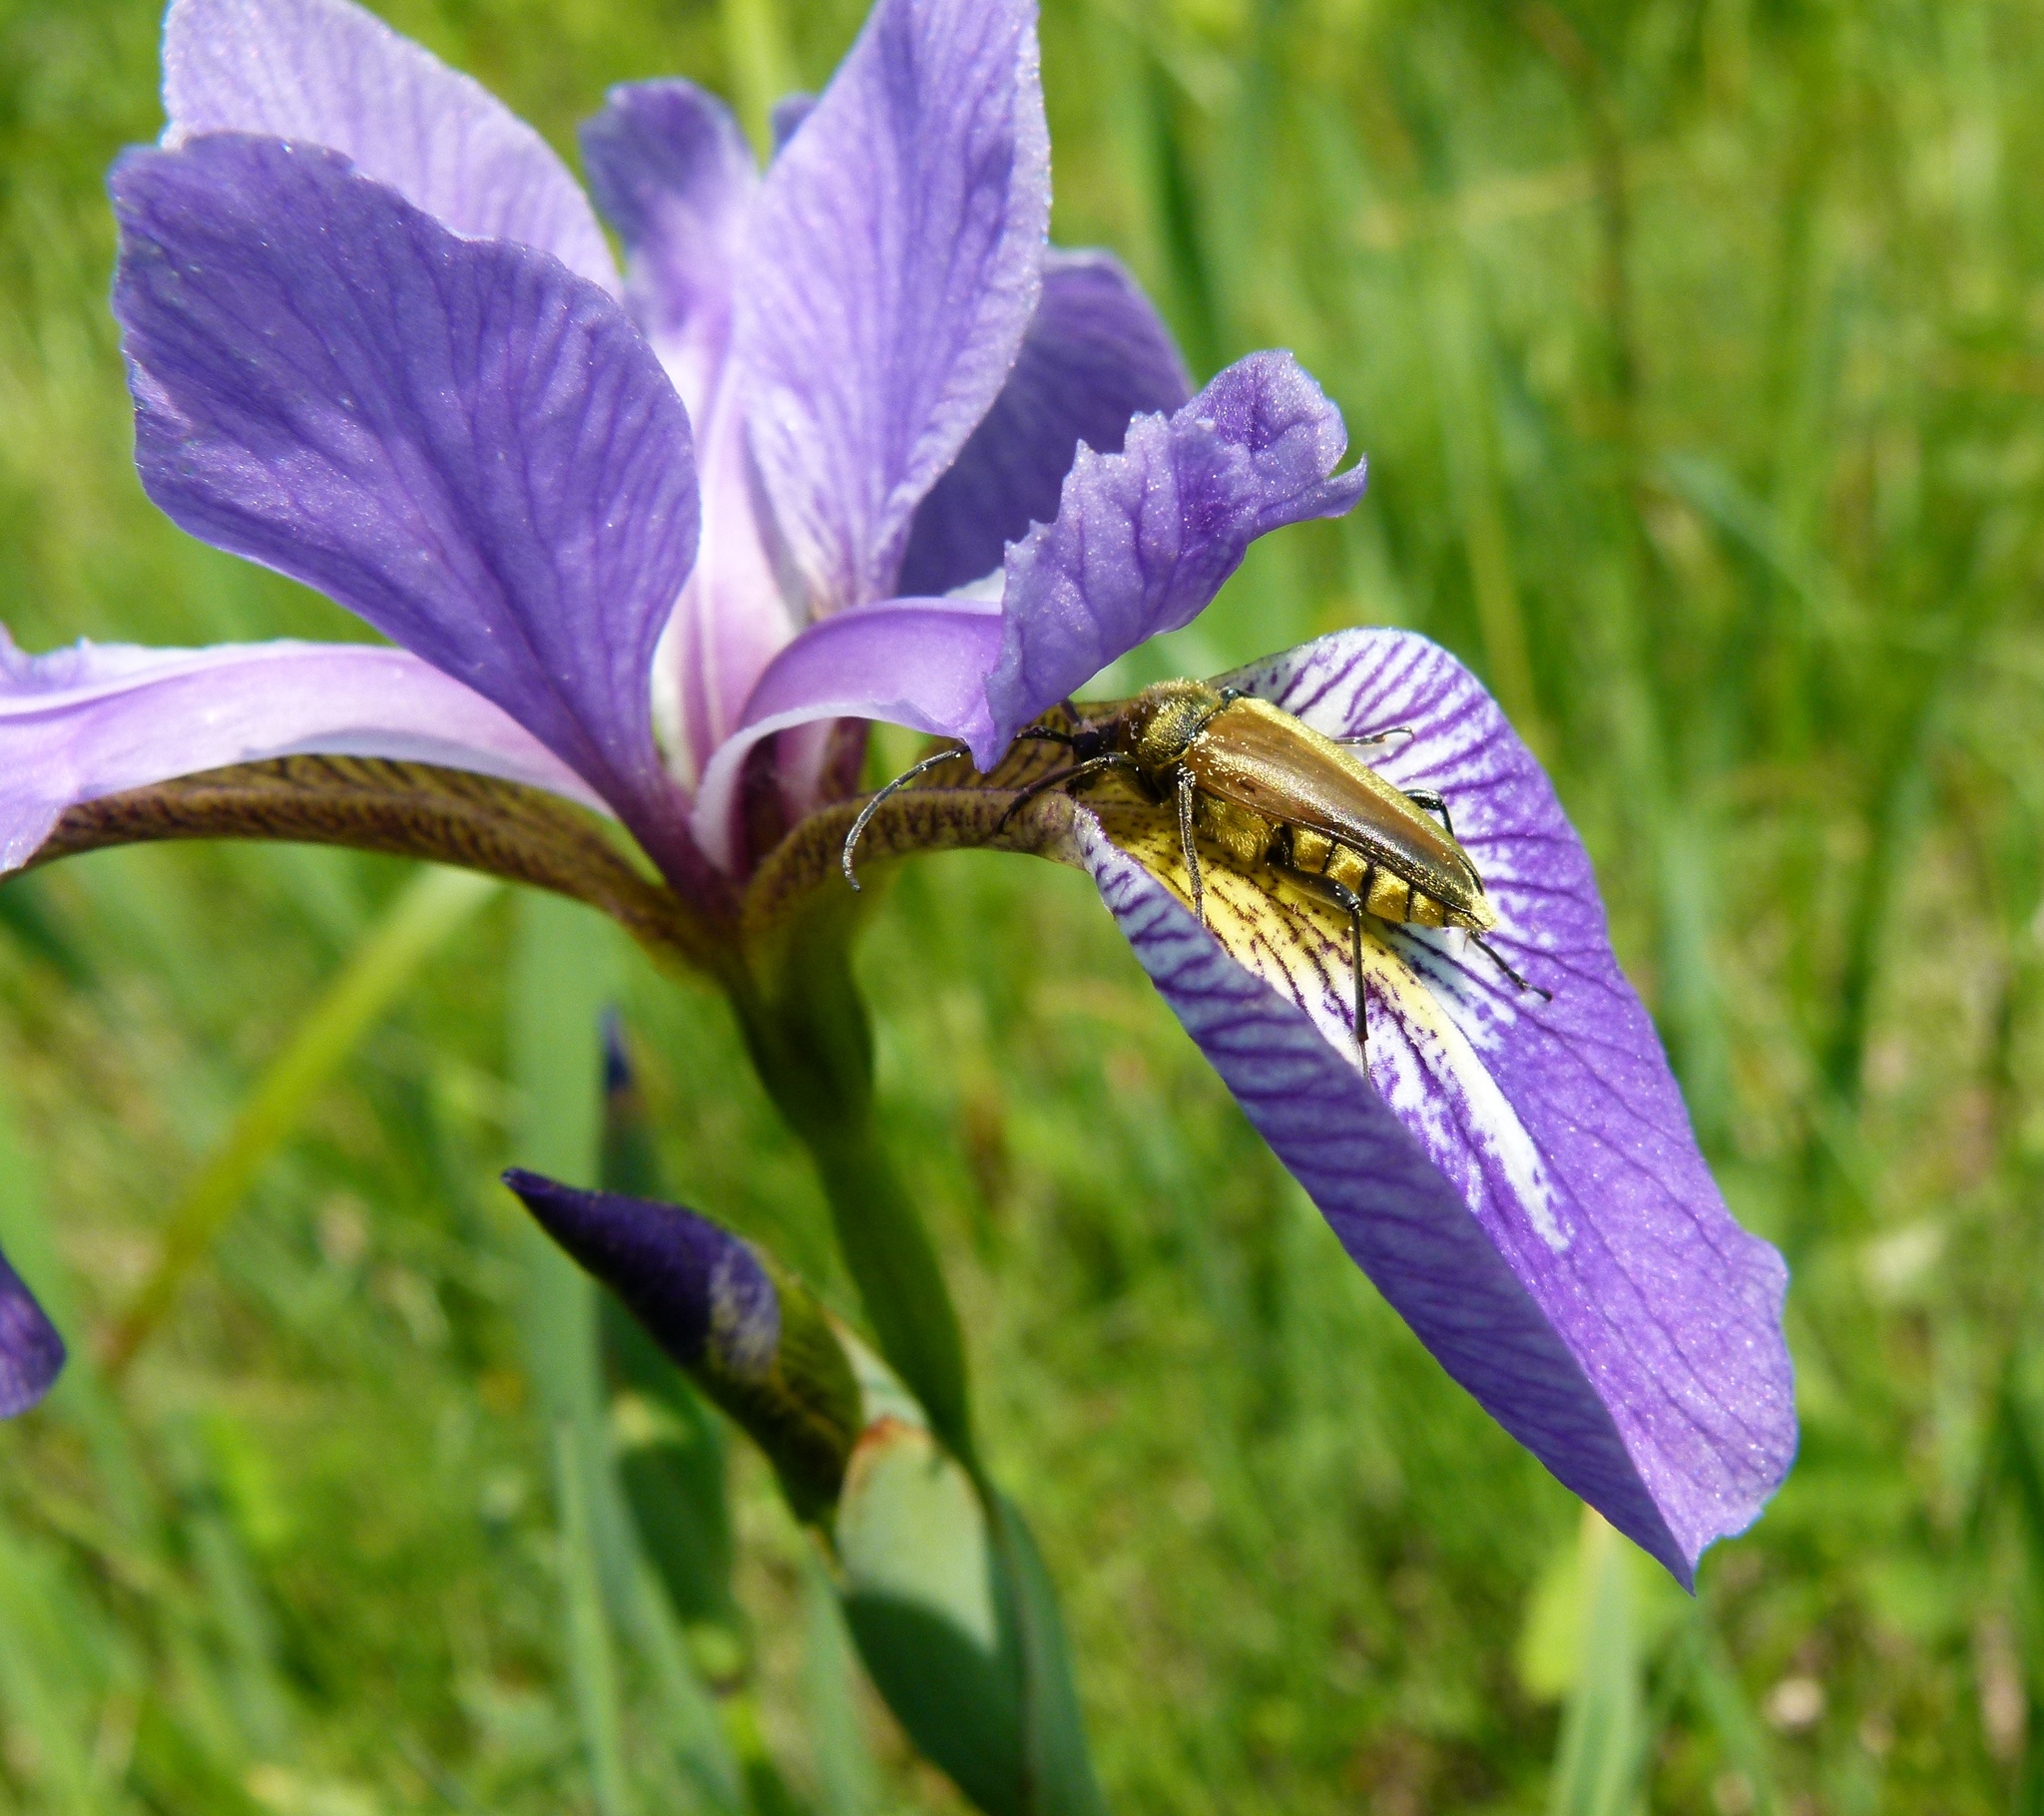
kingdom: Plantae
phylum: Tracheophyta
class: Liliopsida
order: Asparagales
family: Iridaceae
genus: Iris
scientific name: Iris versicolor
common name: Purple iris
